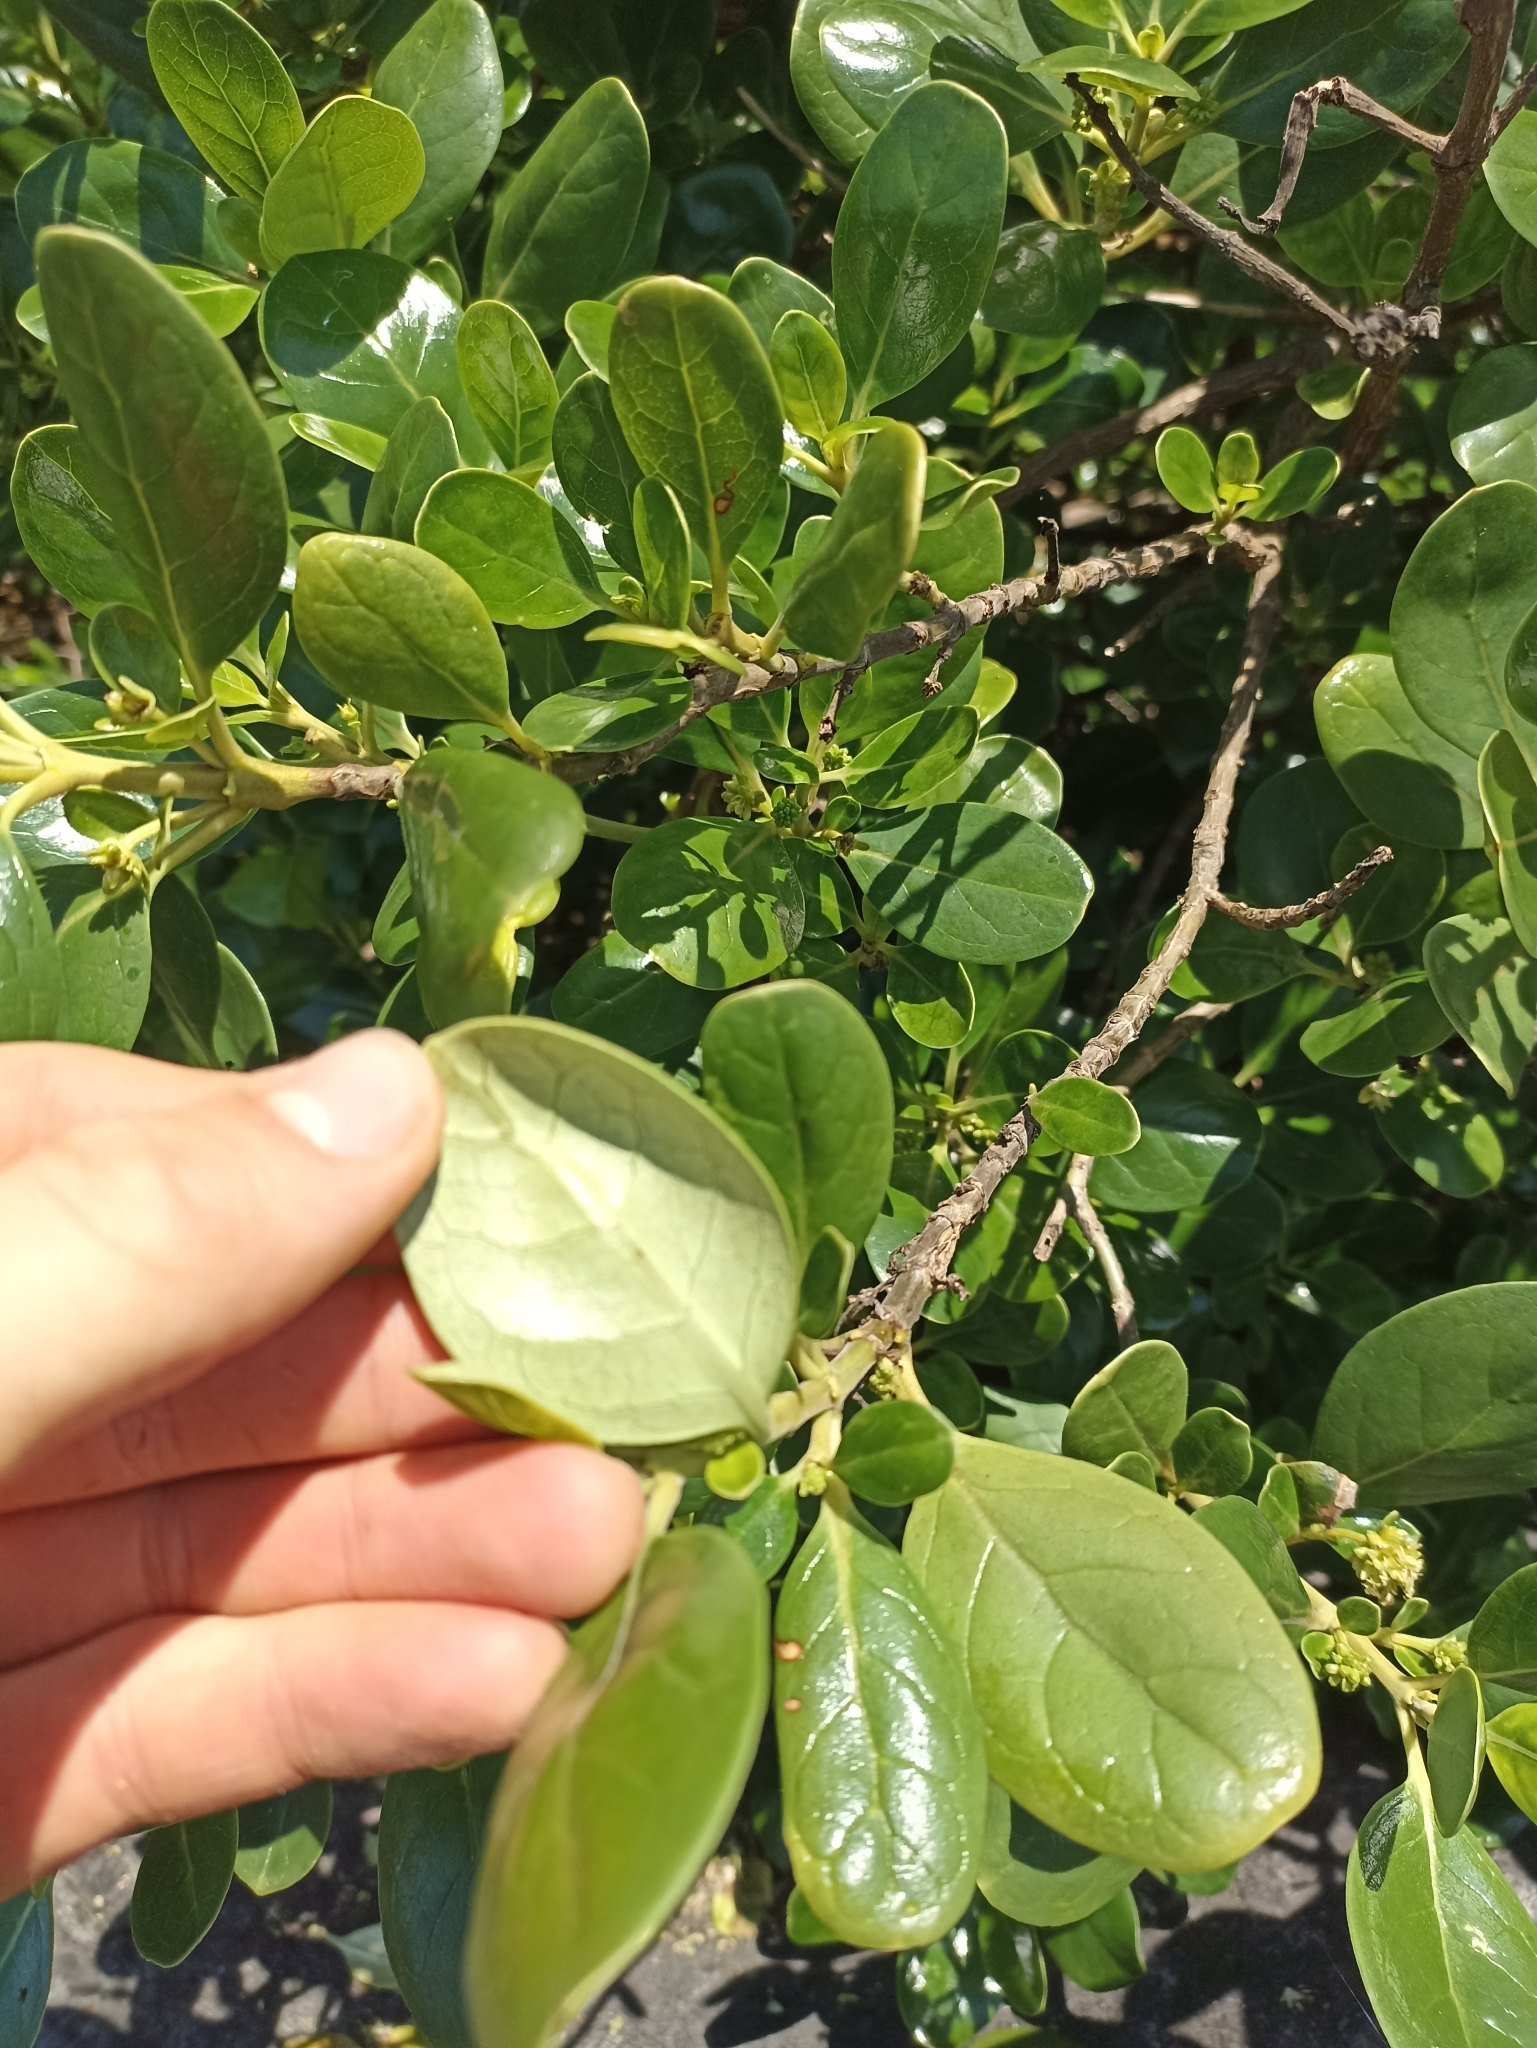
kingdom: Plantae
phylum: Tracheophyta
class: Magnoliopsida
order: Gentianales
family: Rubiaceae
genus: Coprosma
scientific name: Coprosma repens
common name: Tree bedstraw
